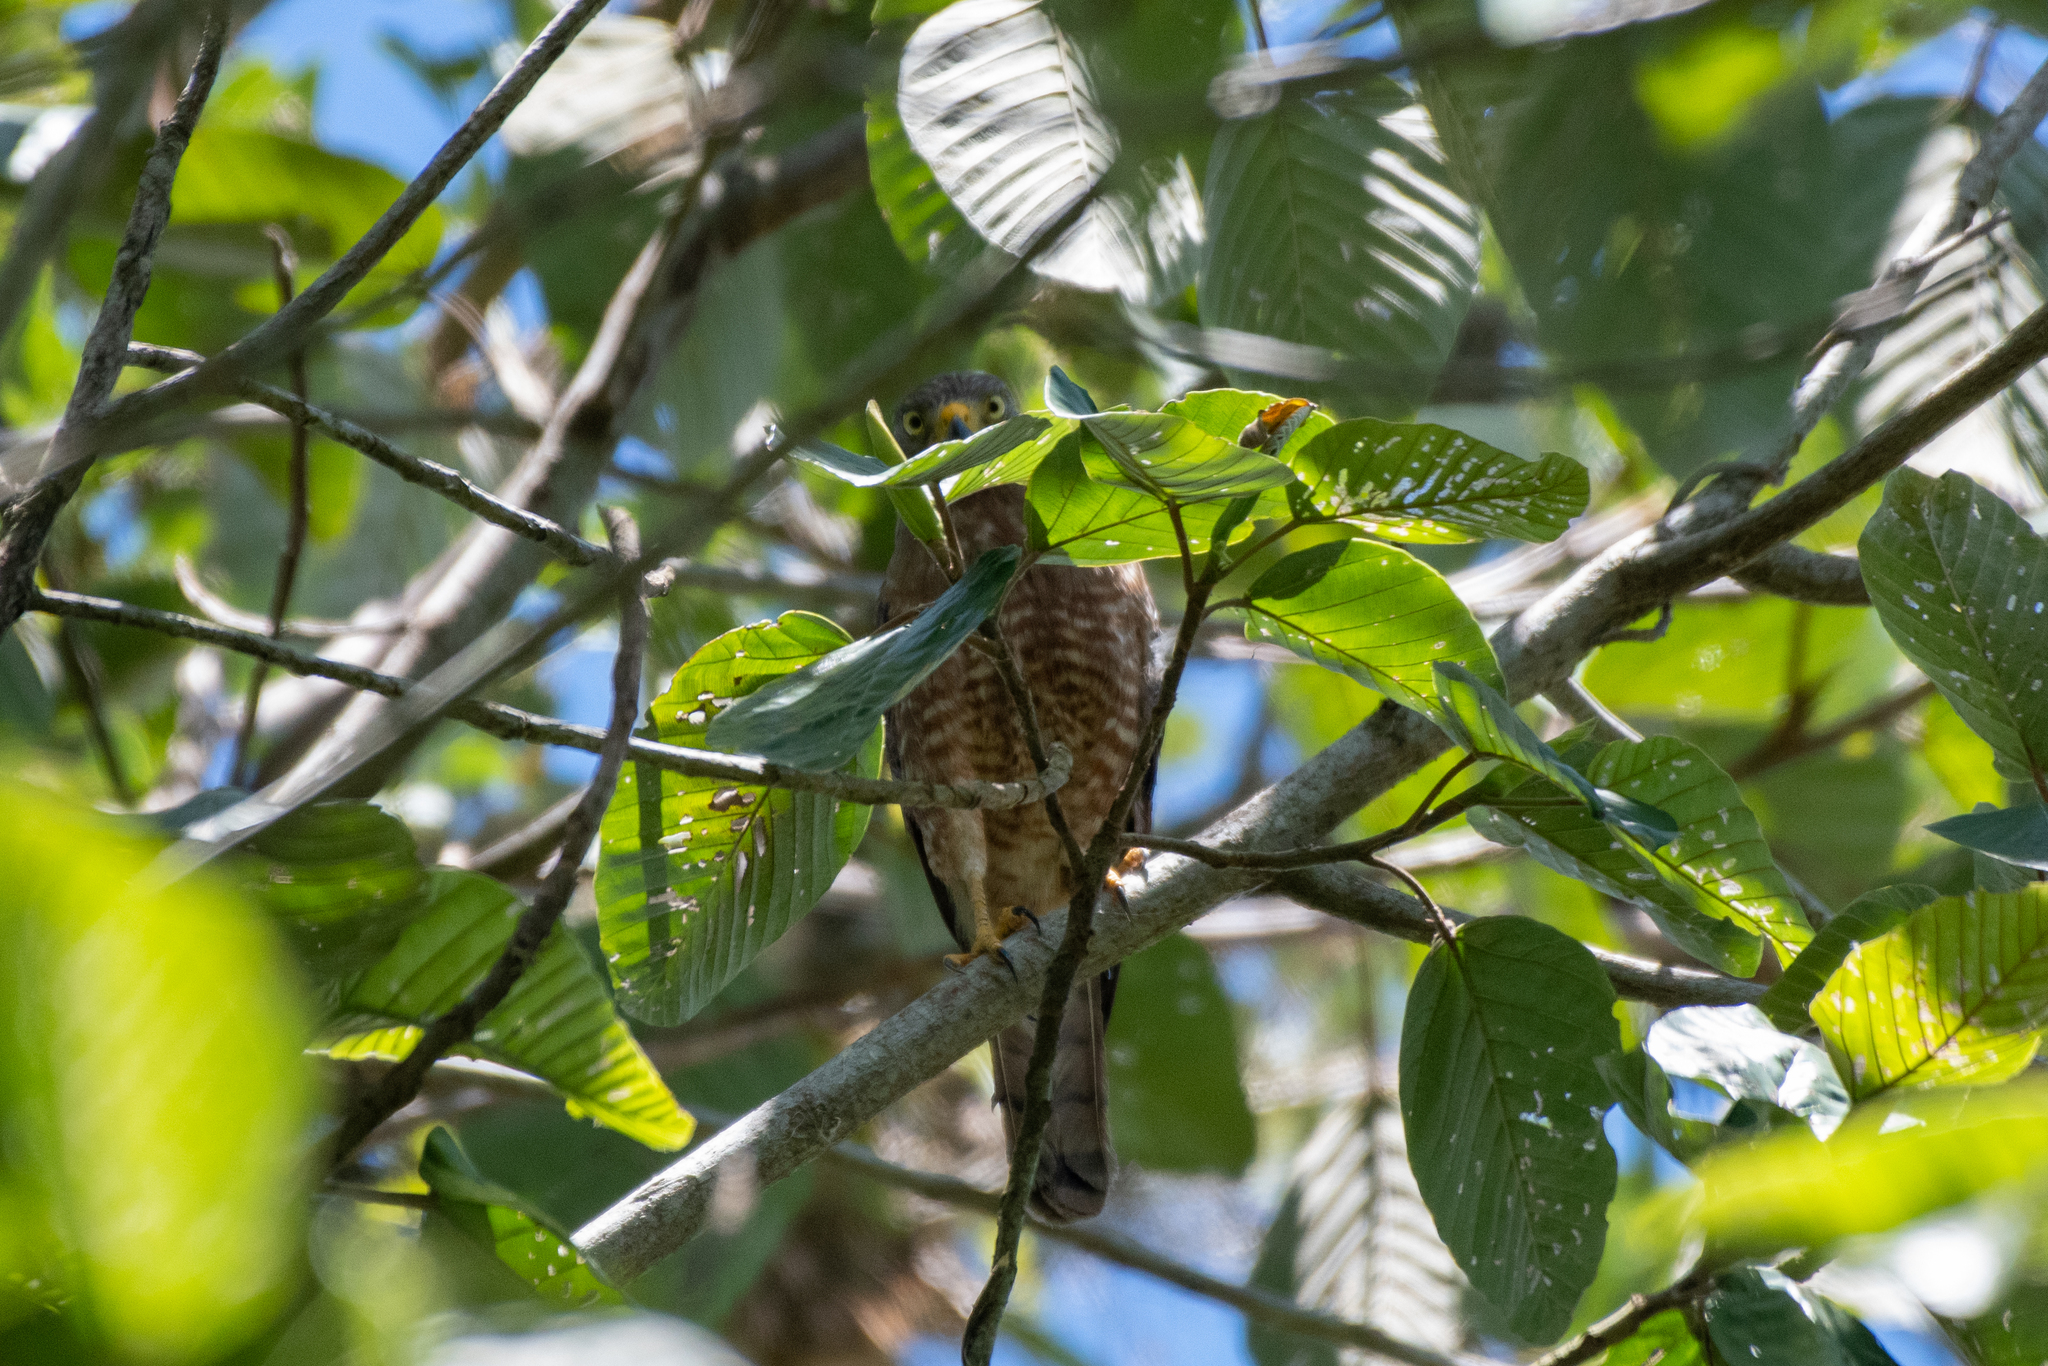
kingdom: Animalia
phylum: Chordata
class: Aves
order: Accipitriformes
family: Accipitridae
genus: Rupornis
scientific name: Rupornis magnirostris
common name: Roadside hawk
